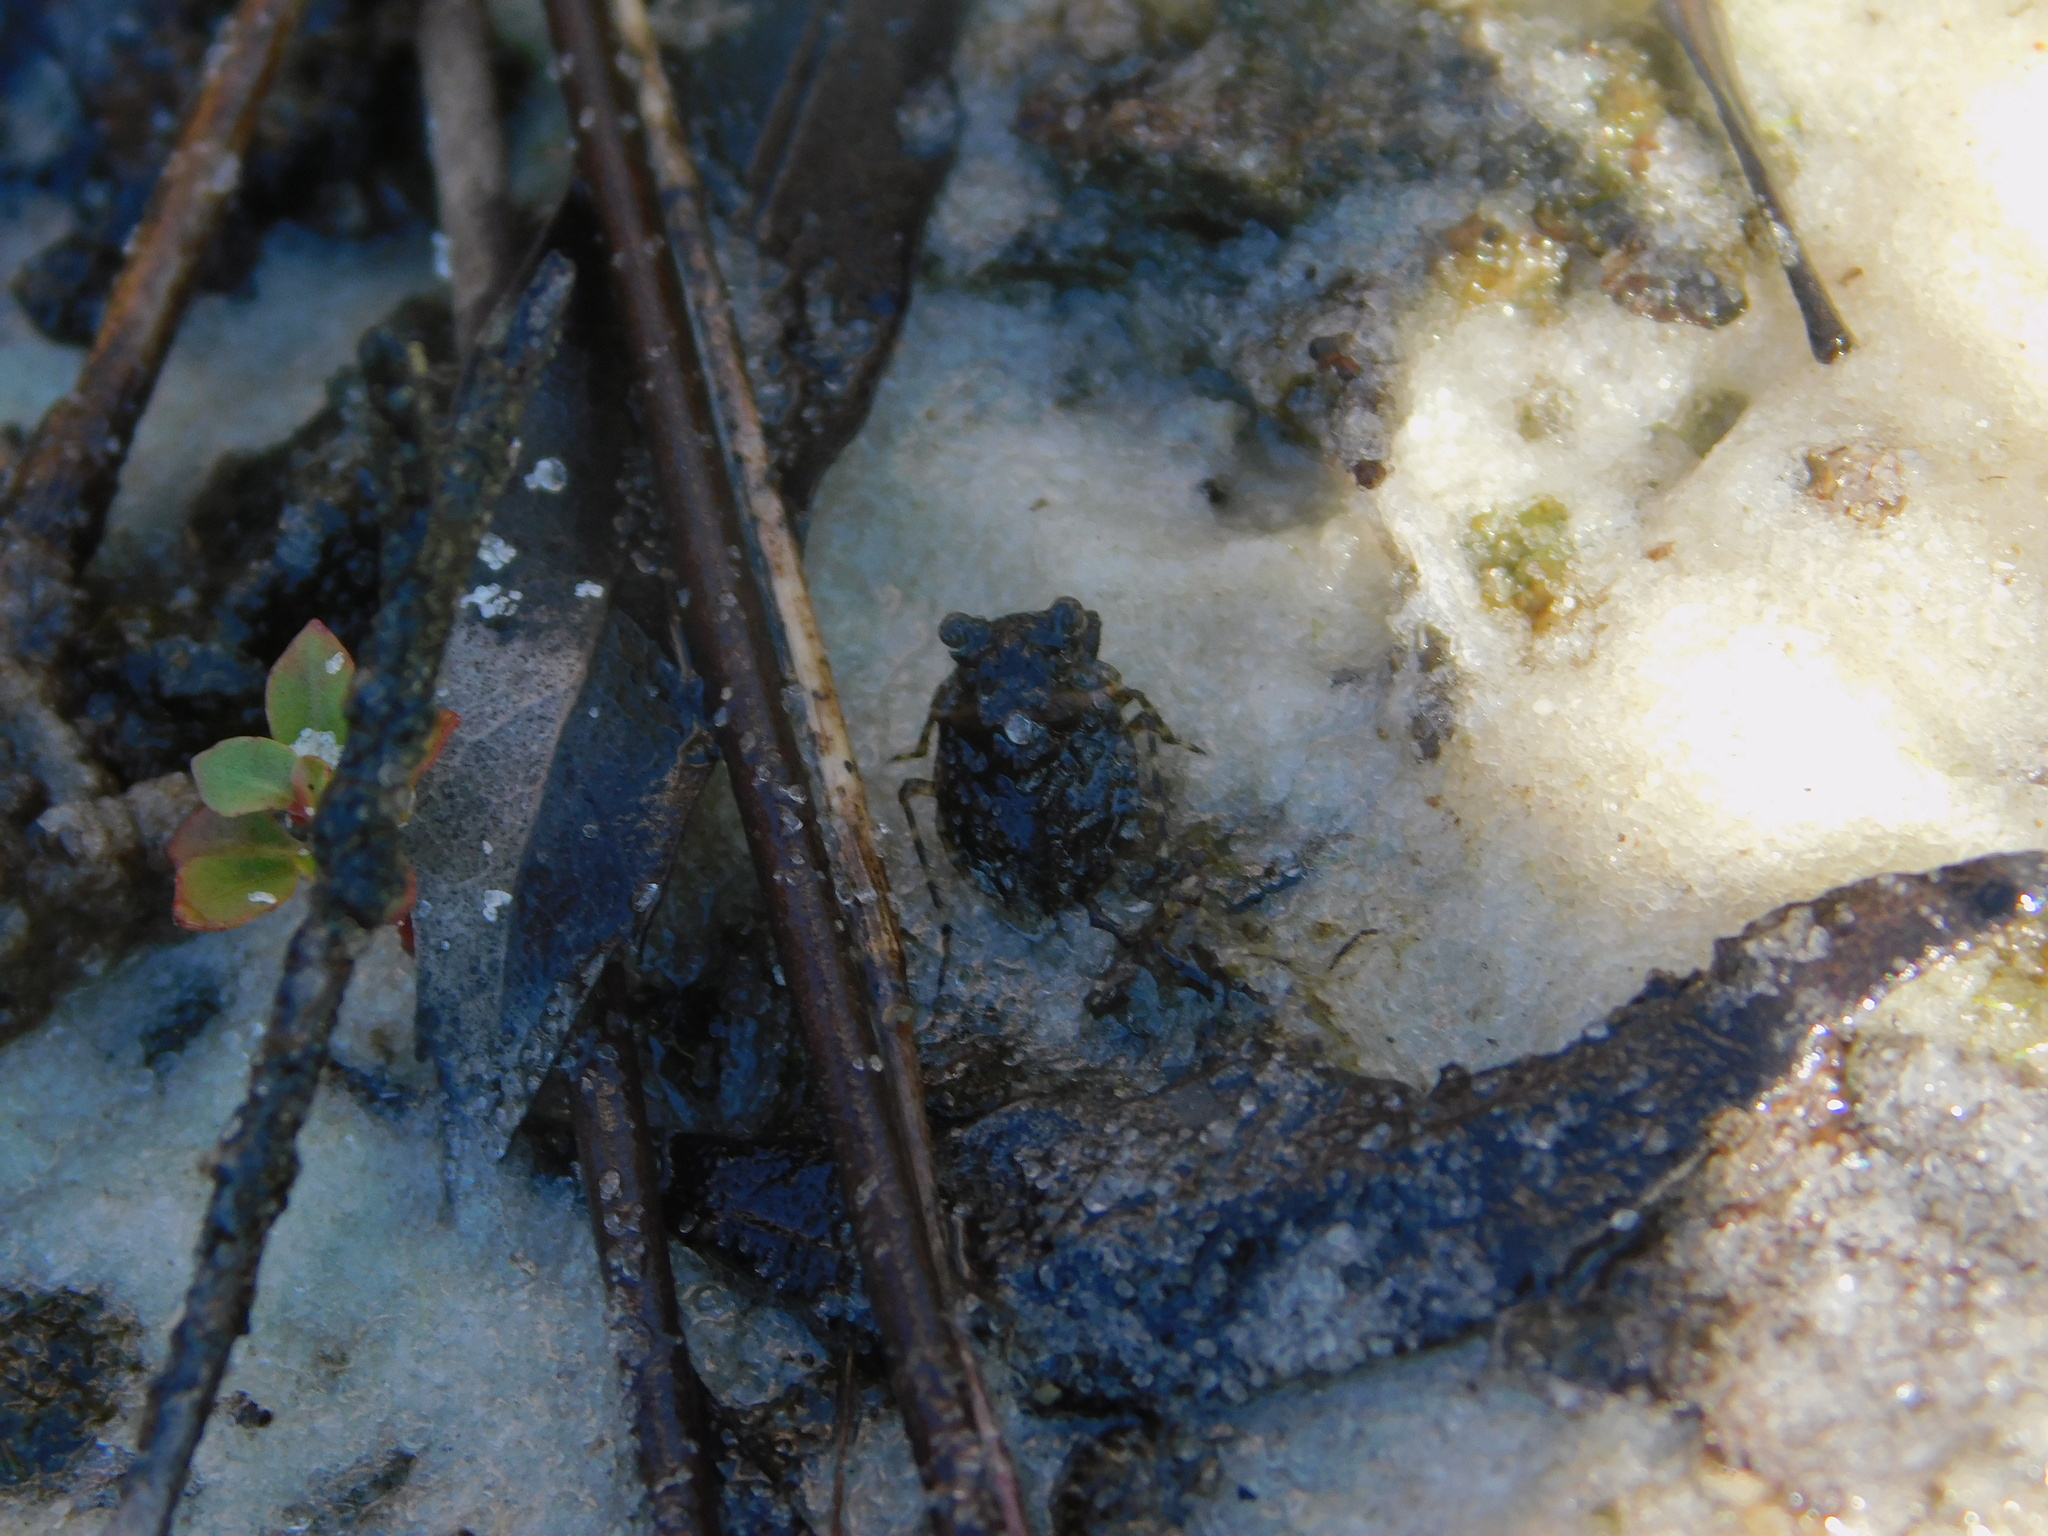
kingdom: Animalia
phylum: Arthropoda
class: Insecta
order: Hemiptera
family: Gelastocoridae
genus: Gelastocoris
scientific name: Gelastocoris oculatus
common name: Toad bug
